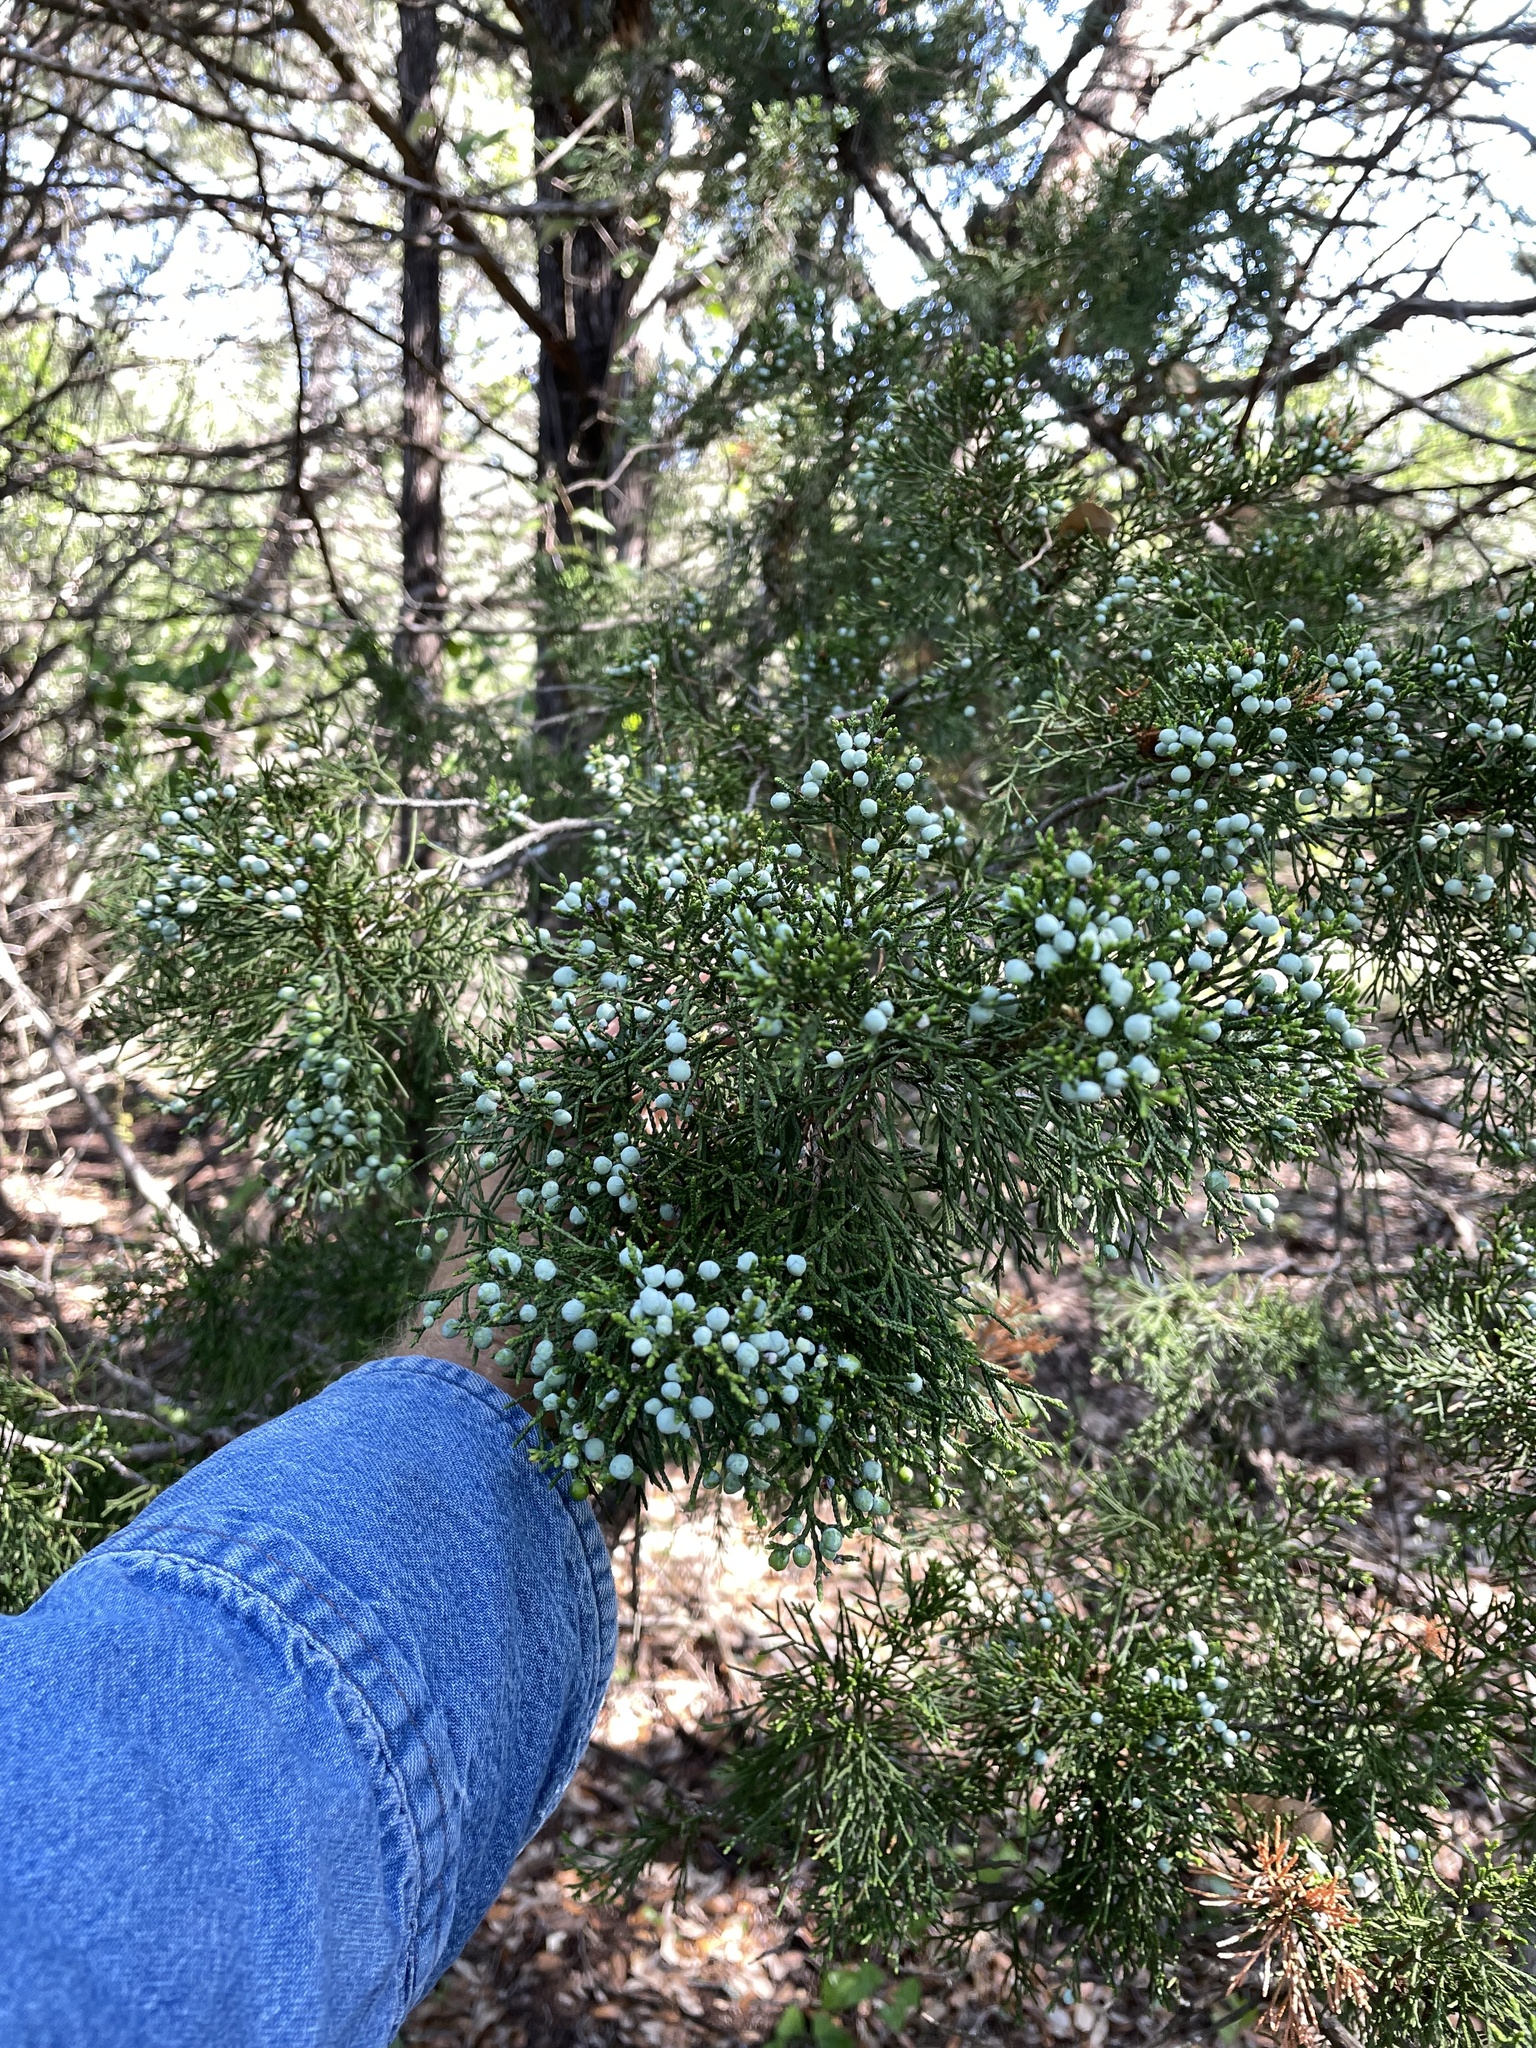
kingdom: Plantae
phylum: Tracheophyta
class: Pinopsida
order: Pinales
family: Cupressaceae
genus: Juniperus
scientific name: Juniperus virginiana
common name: Red juniper
